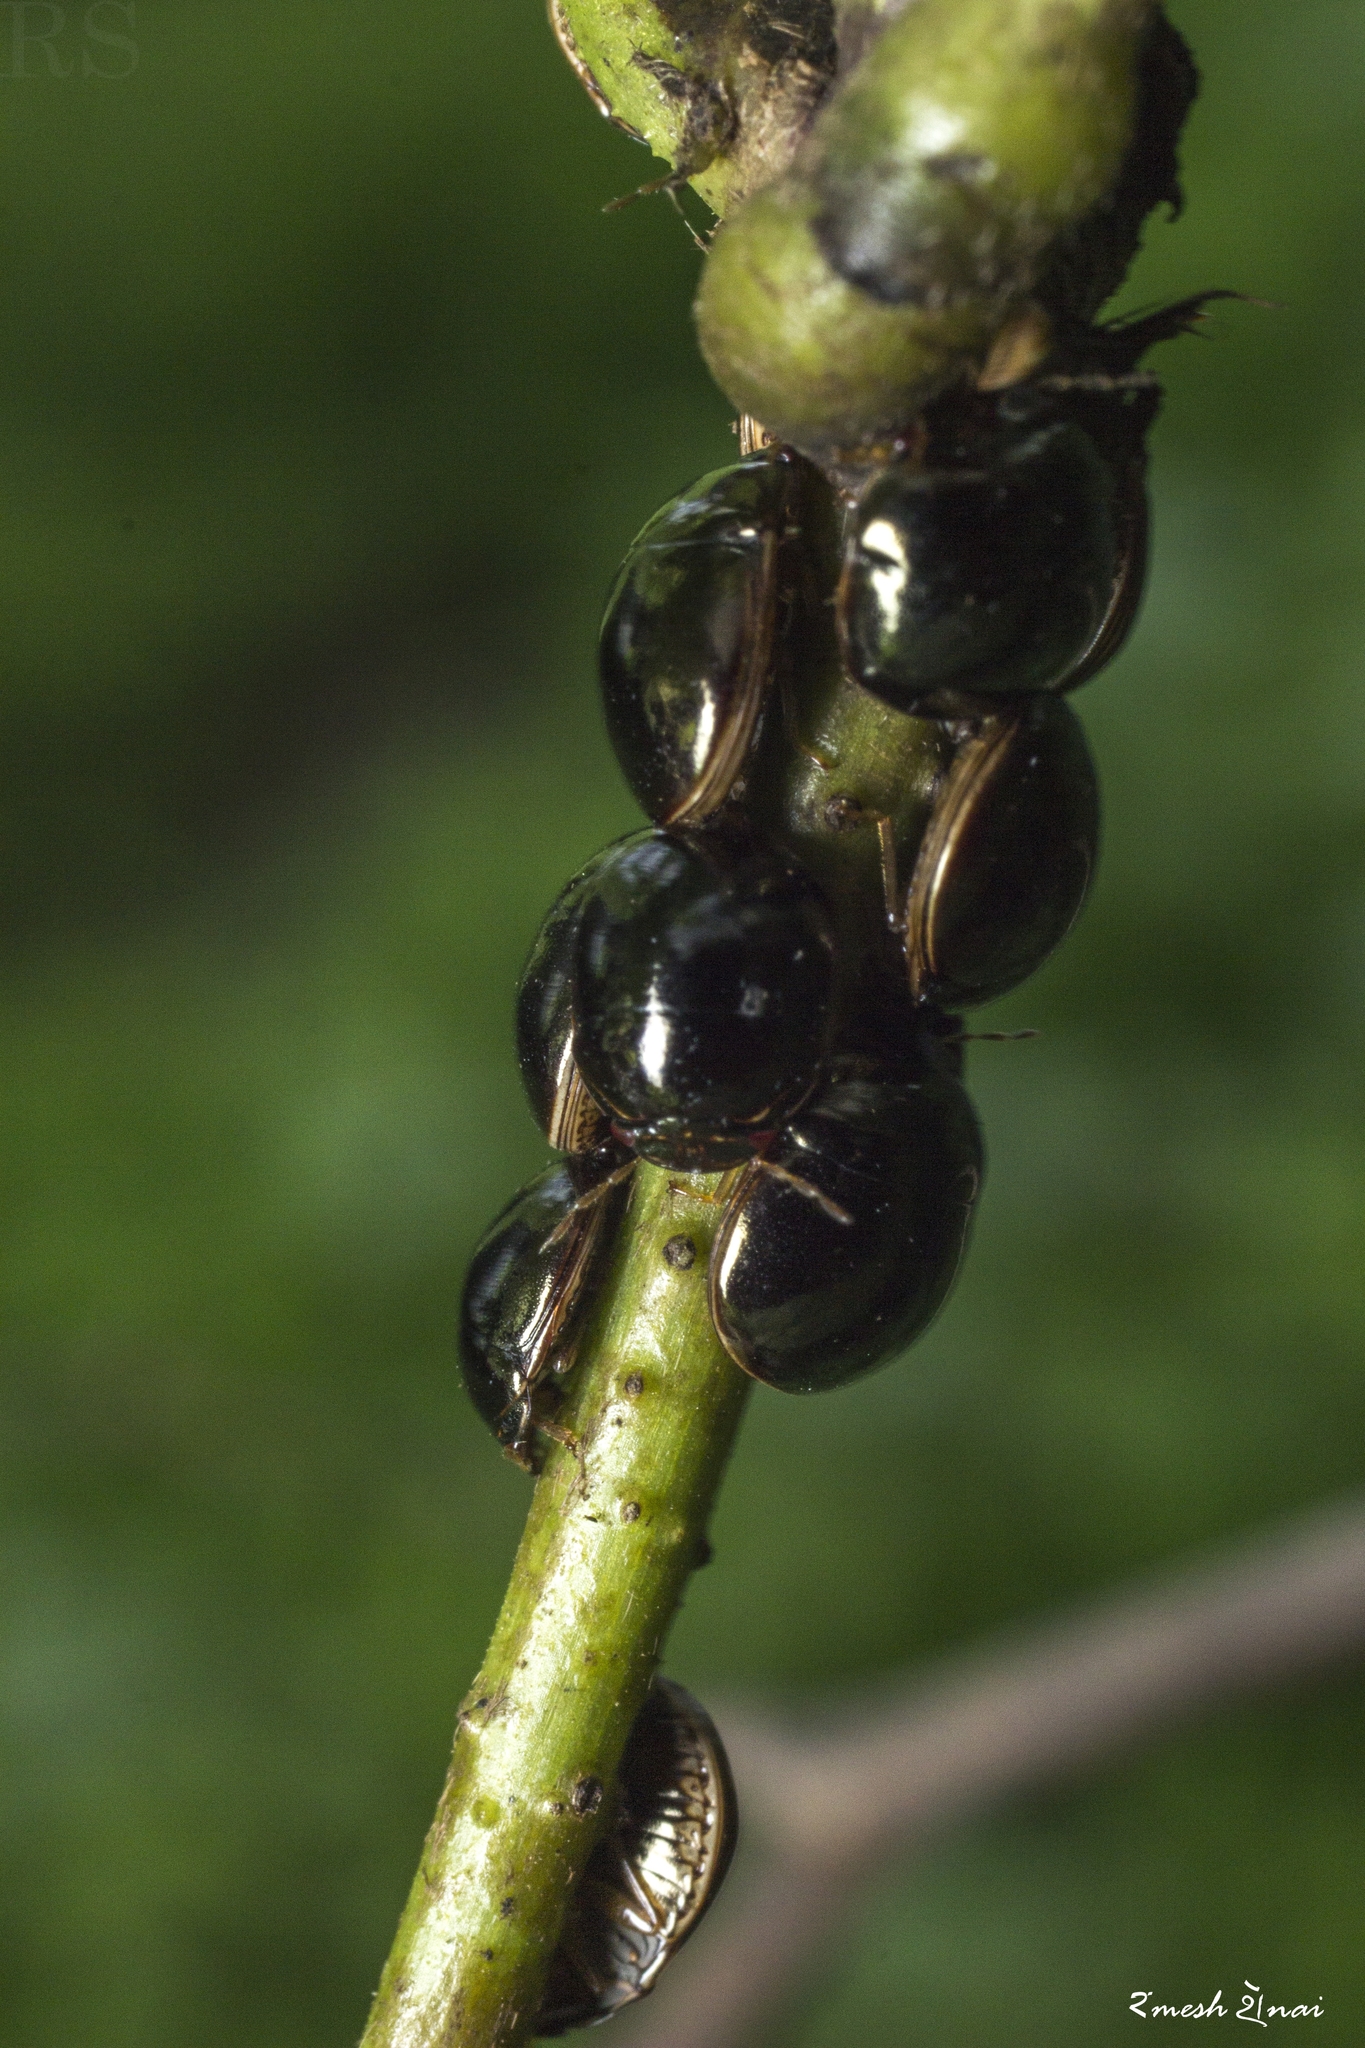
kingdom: Animalia
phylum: Arthropoda
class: Insecta
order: Hemiptera
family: Plataspidae
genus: Brachyplatys
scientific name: Brachyplatys subaeneus
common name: Black bean bug
